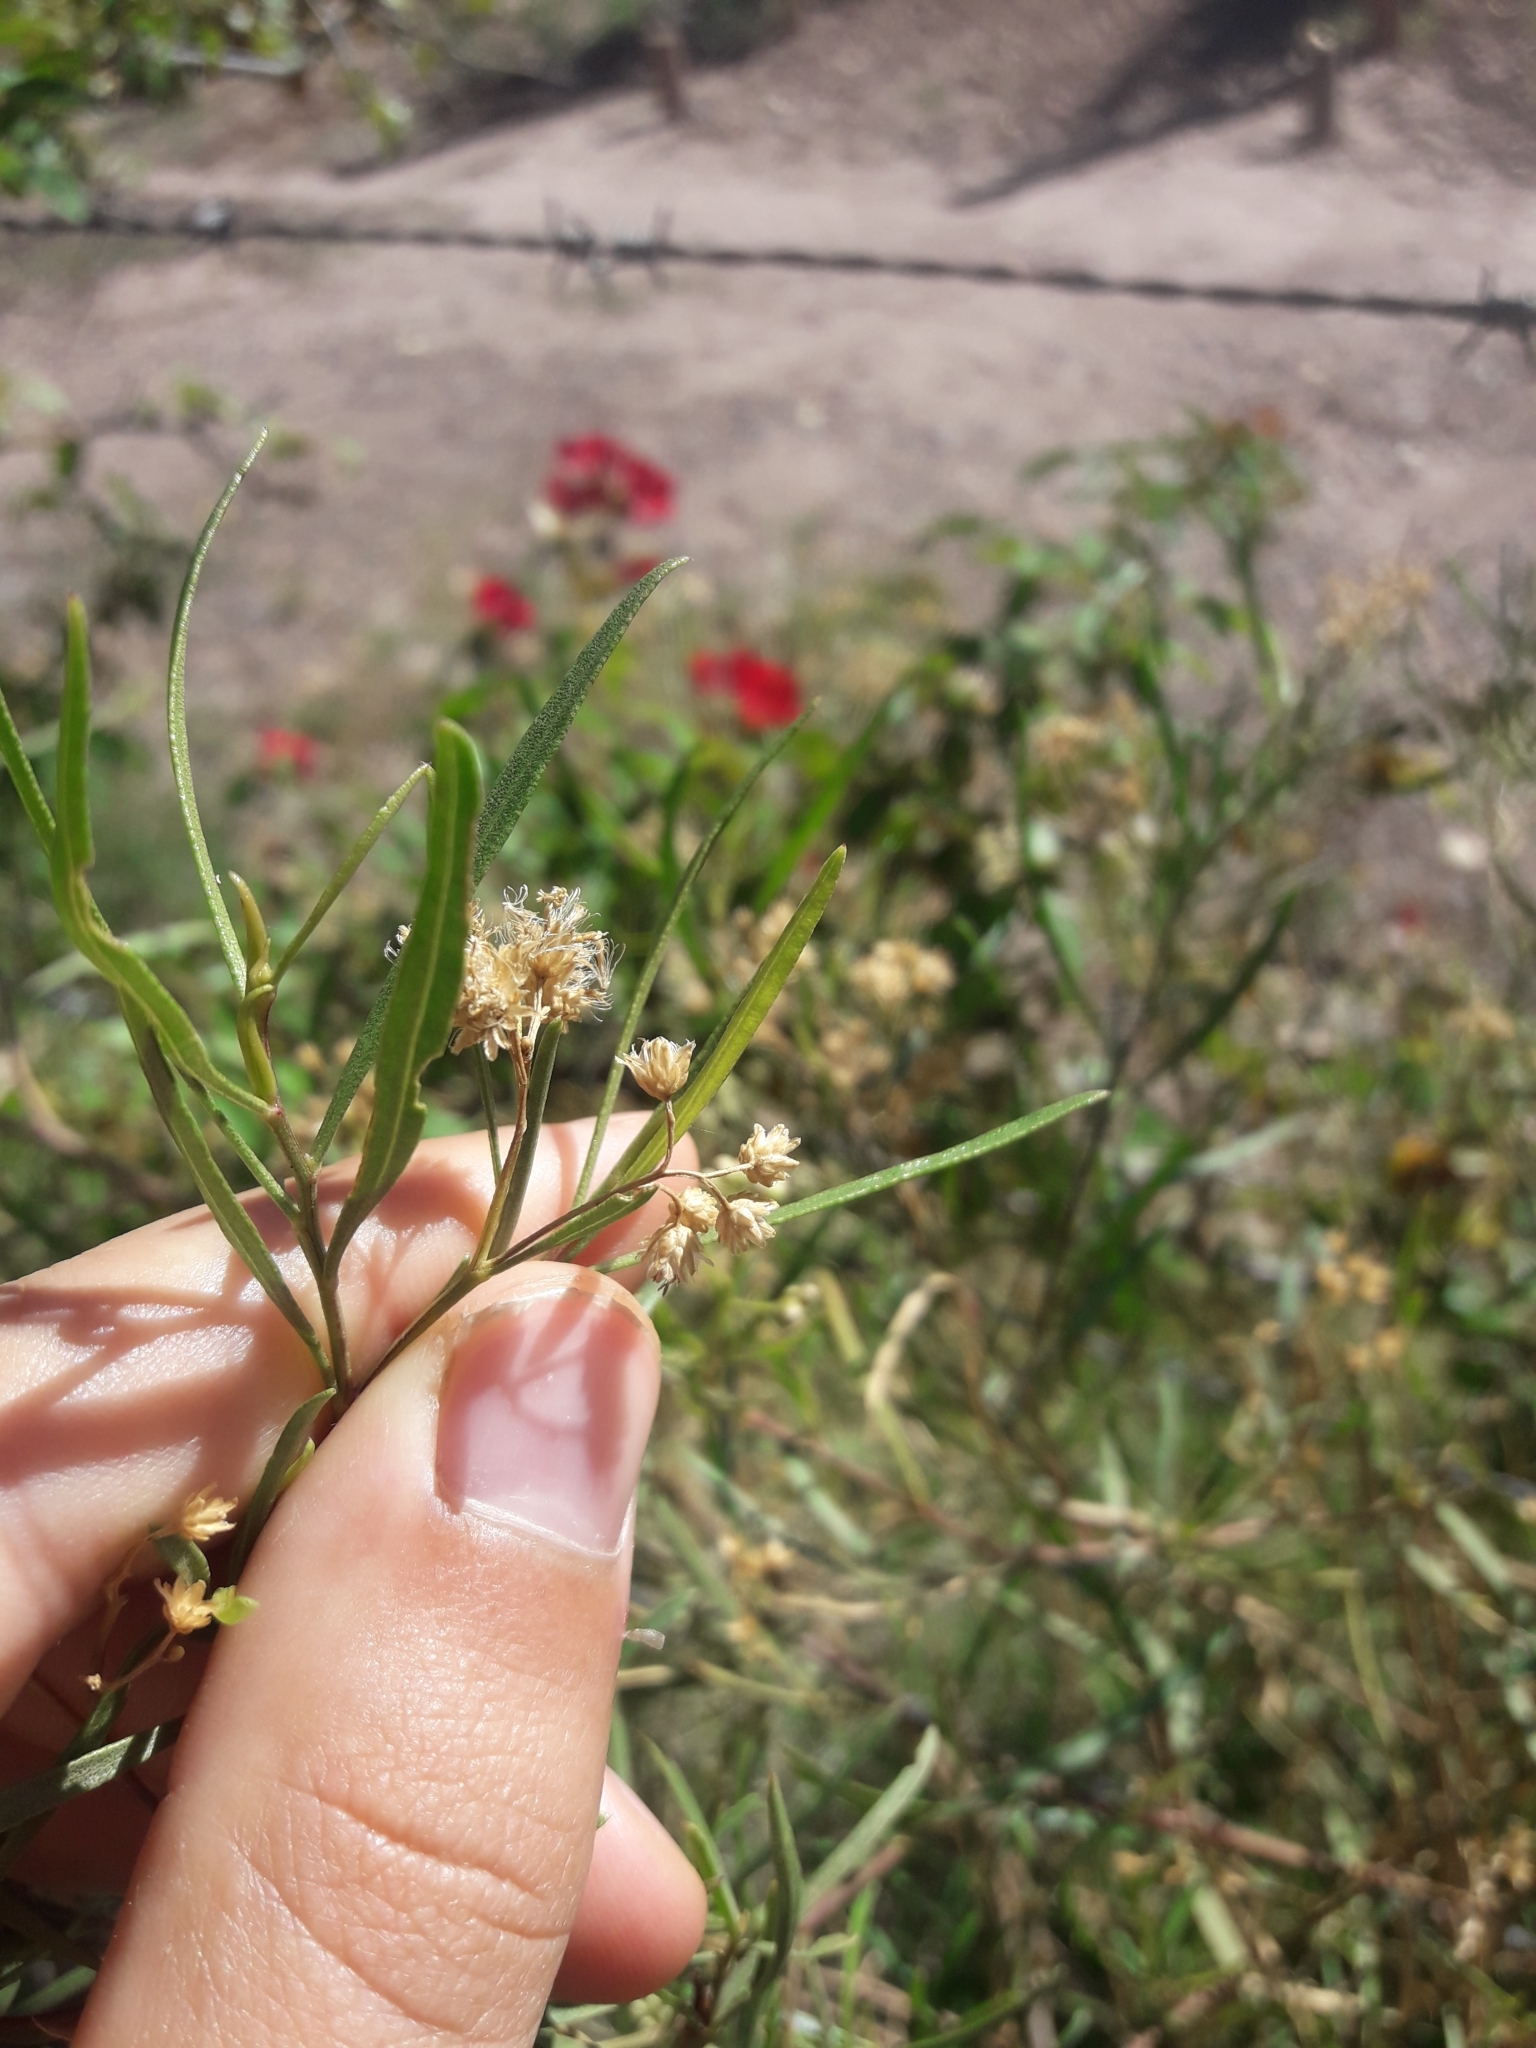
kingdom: Plantae
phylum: Tracheophyta
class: Magnoliopsida
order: Asterales
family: Asteraceae
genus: Baccharis
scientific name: Baccharis salicifolia
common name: Sticky baccharis
